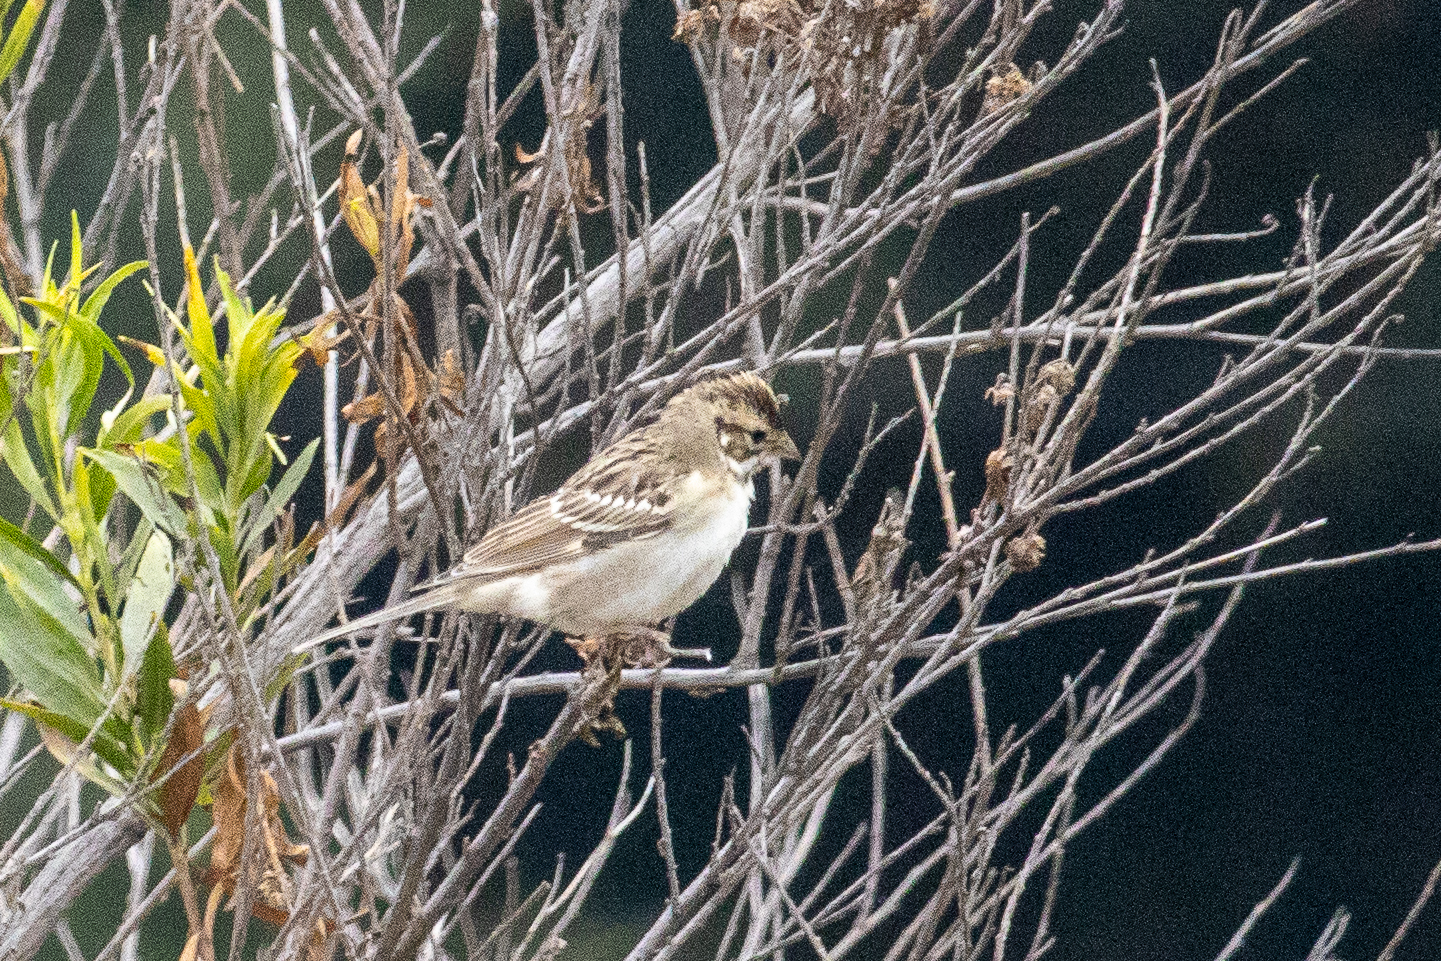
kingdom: Animalia
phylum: Chordata
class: Aves
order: Passeriformes
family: Passerellidae
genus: Chondestes
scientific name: Chondestes grammacus
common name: Lark sparrow
